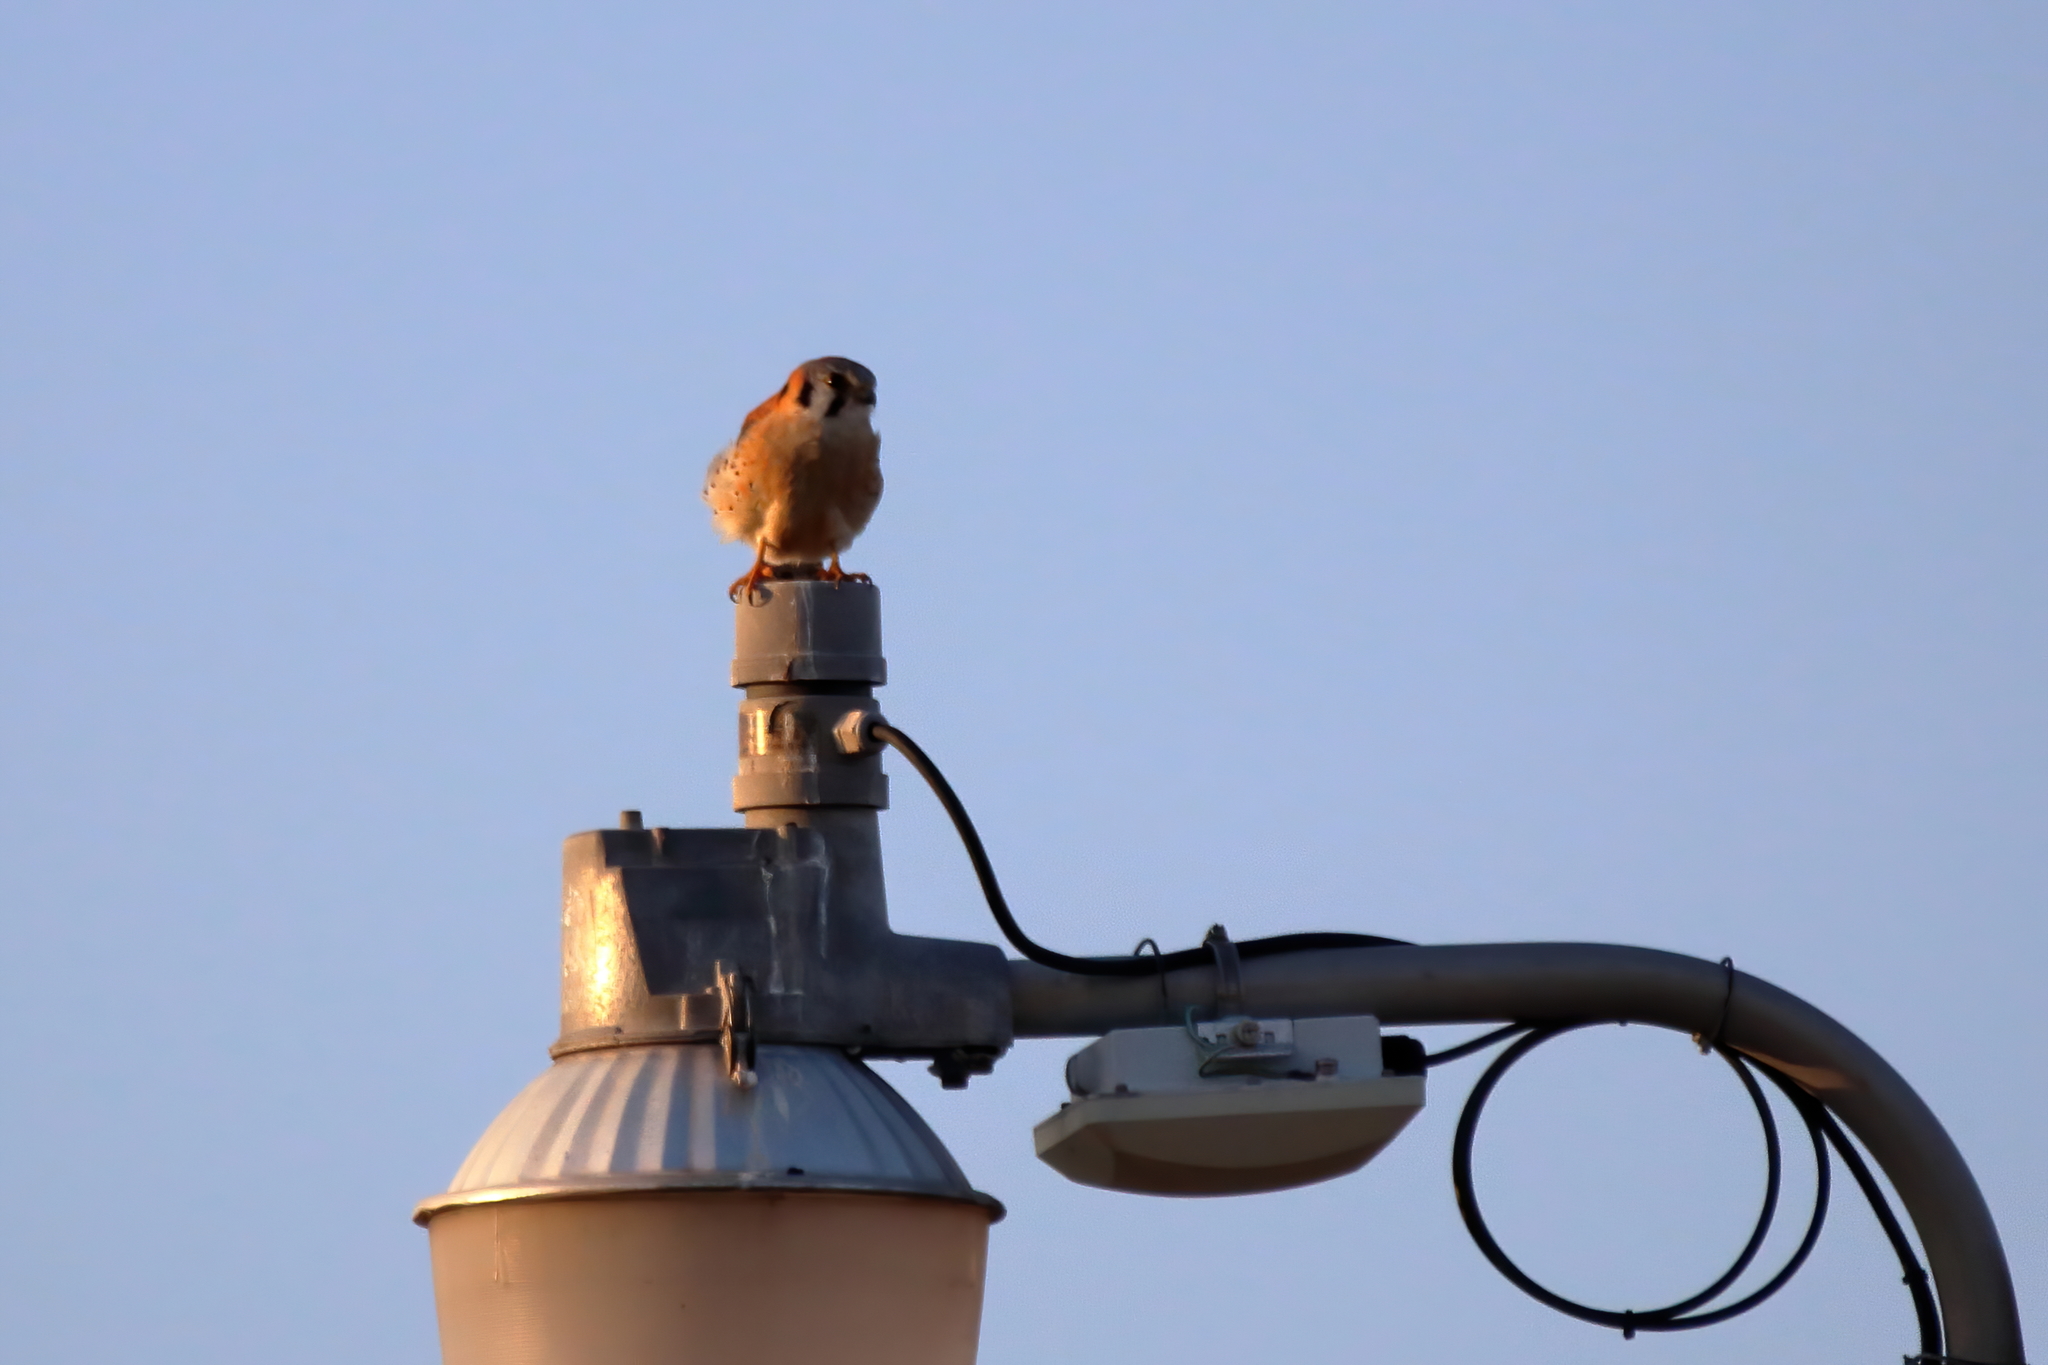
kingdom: Animalia
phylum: Chordata
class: Aves
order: Falconiformes
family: Falconidae
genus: Falco
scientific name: Falco sparverius
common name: American kestrel
